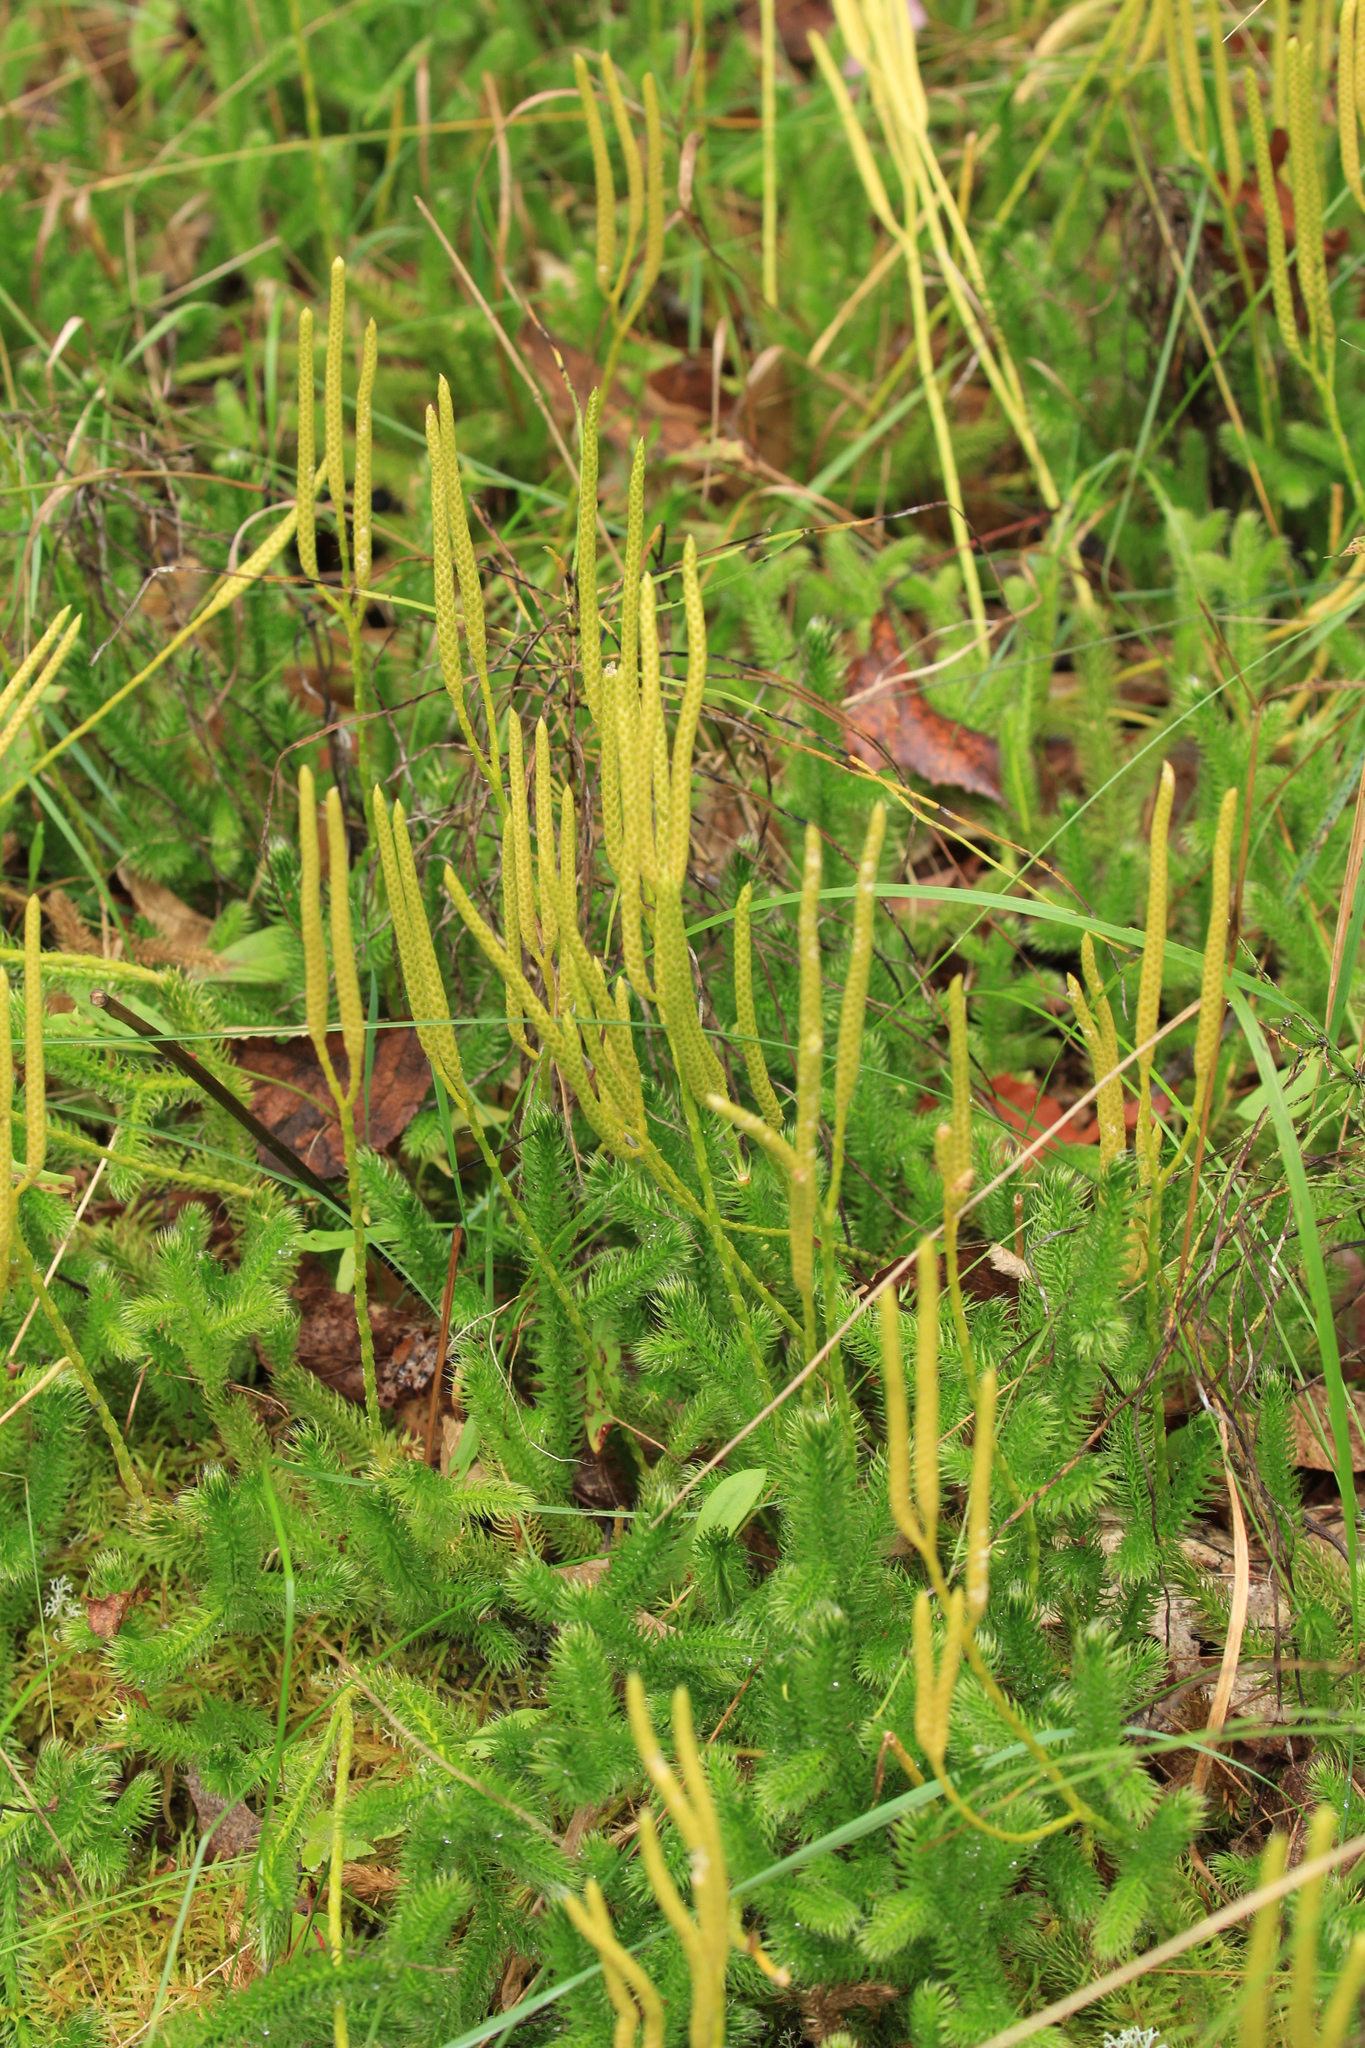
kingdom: Plantae
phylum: Tracheophyta
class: Lycopodiopsida
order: Lycopodiales
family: Lycopodiaceae
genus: Lycopodium
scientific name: Lycopodium clavatum
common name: Stag's-horn clubmoss
